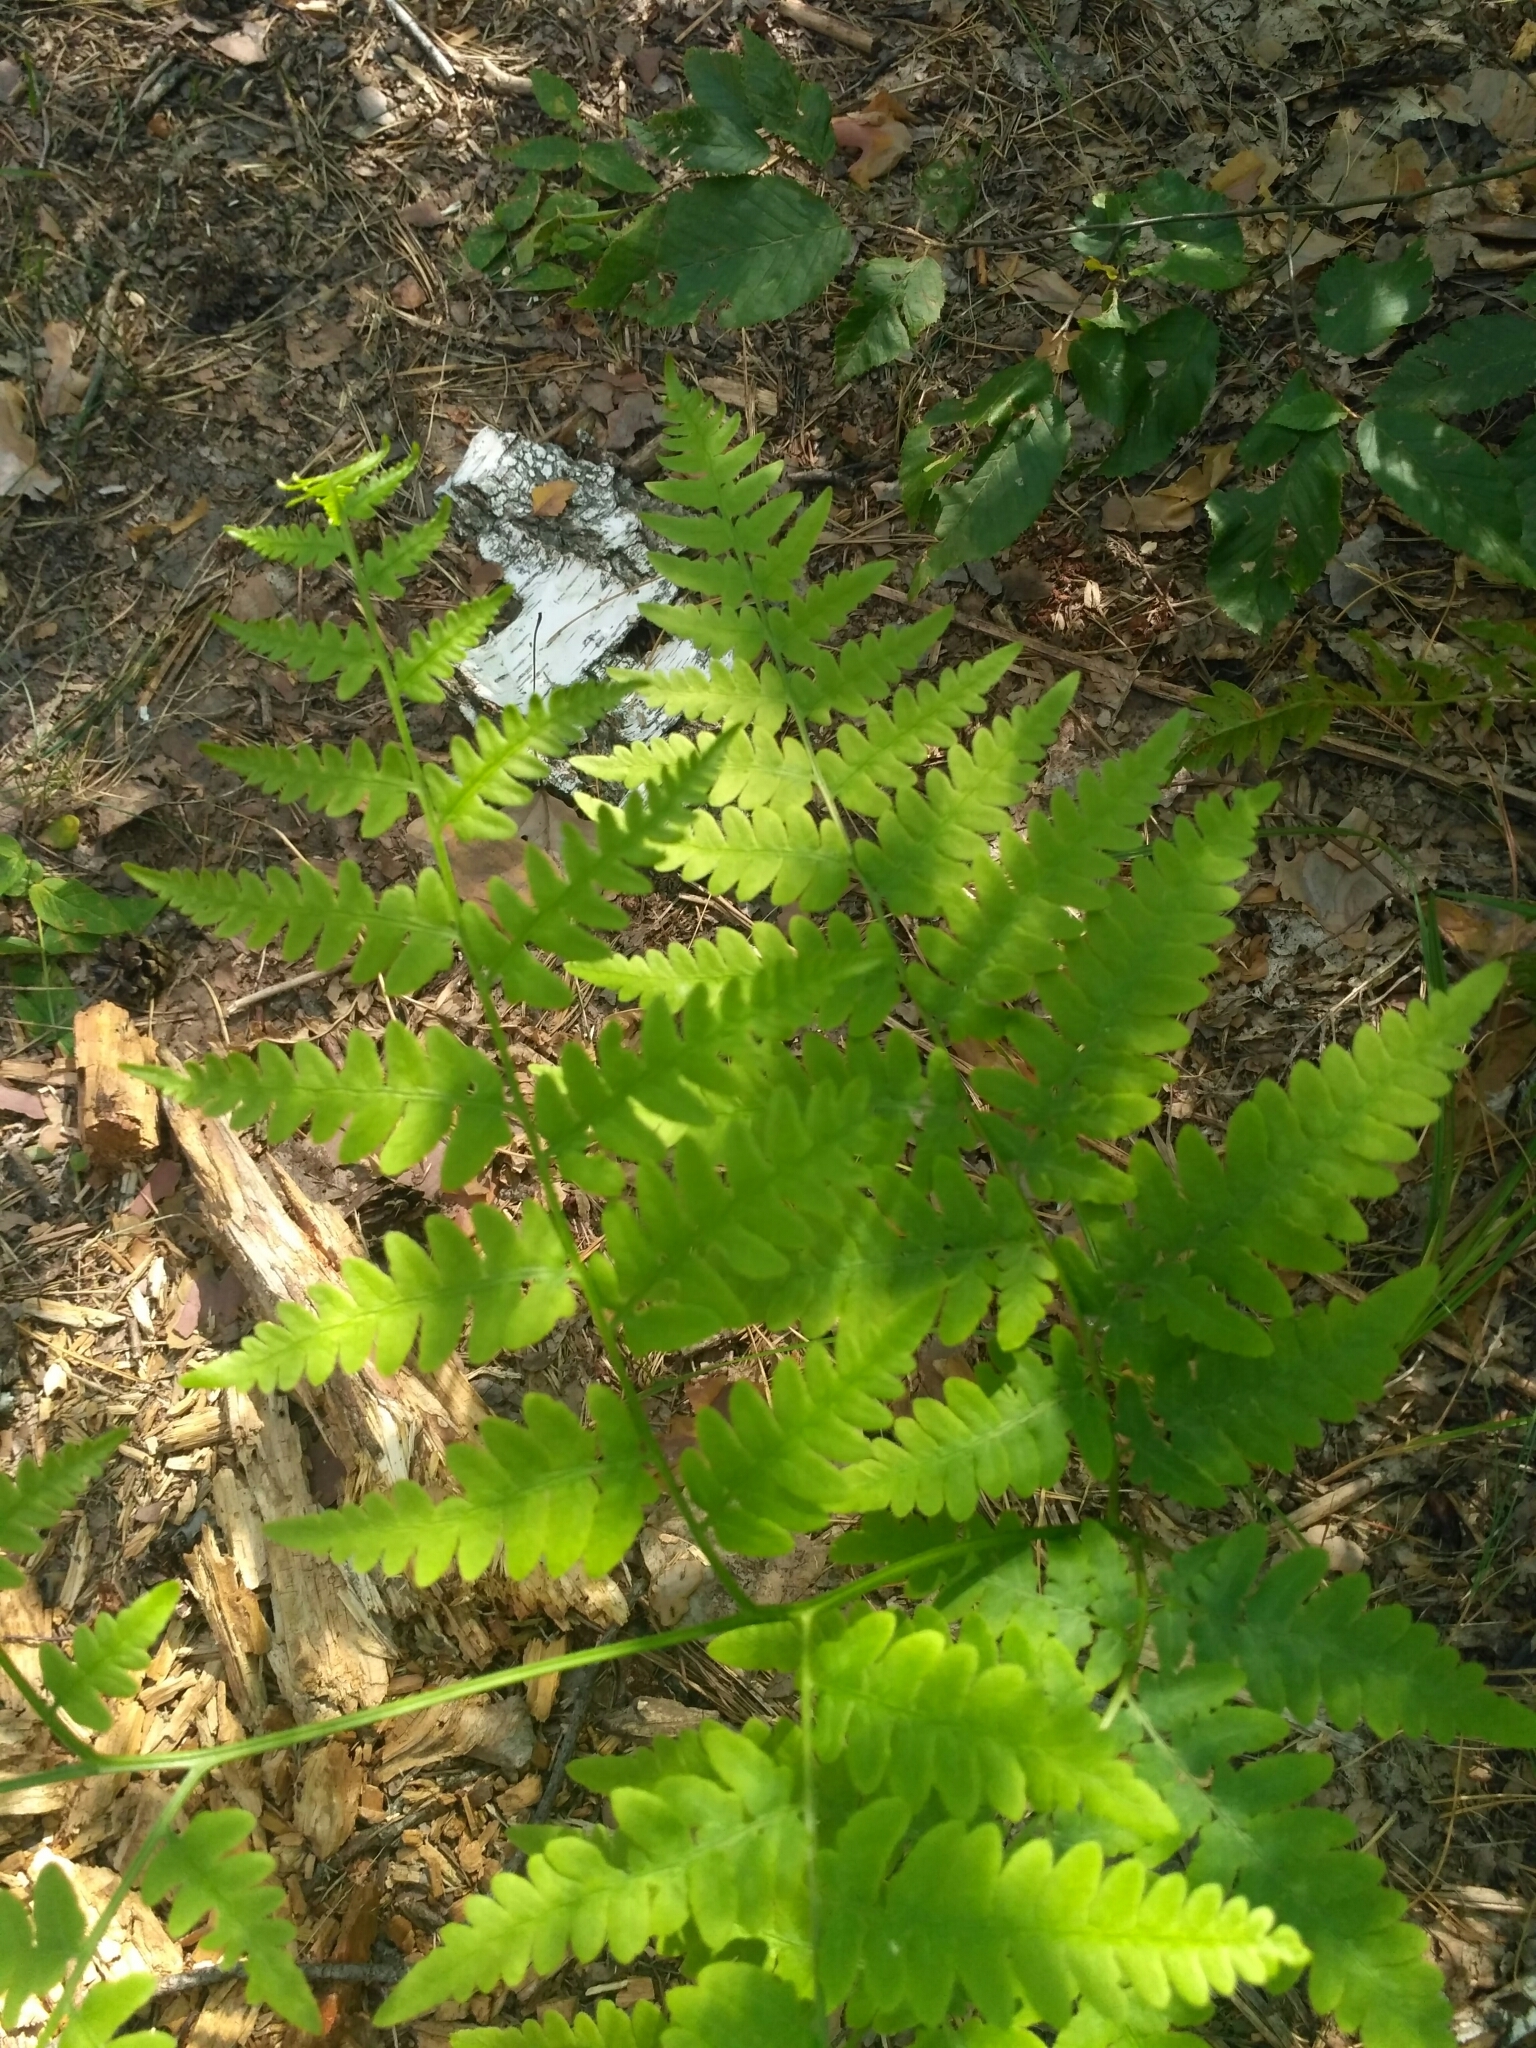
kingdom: Plantae
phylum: Tracheophyta
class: Polypodiopsida
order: Polypodiales
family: Dennstaedtiaceae
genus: Pteridium
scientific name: Pteridium aquilinum
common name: Bracken
